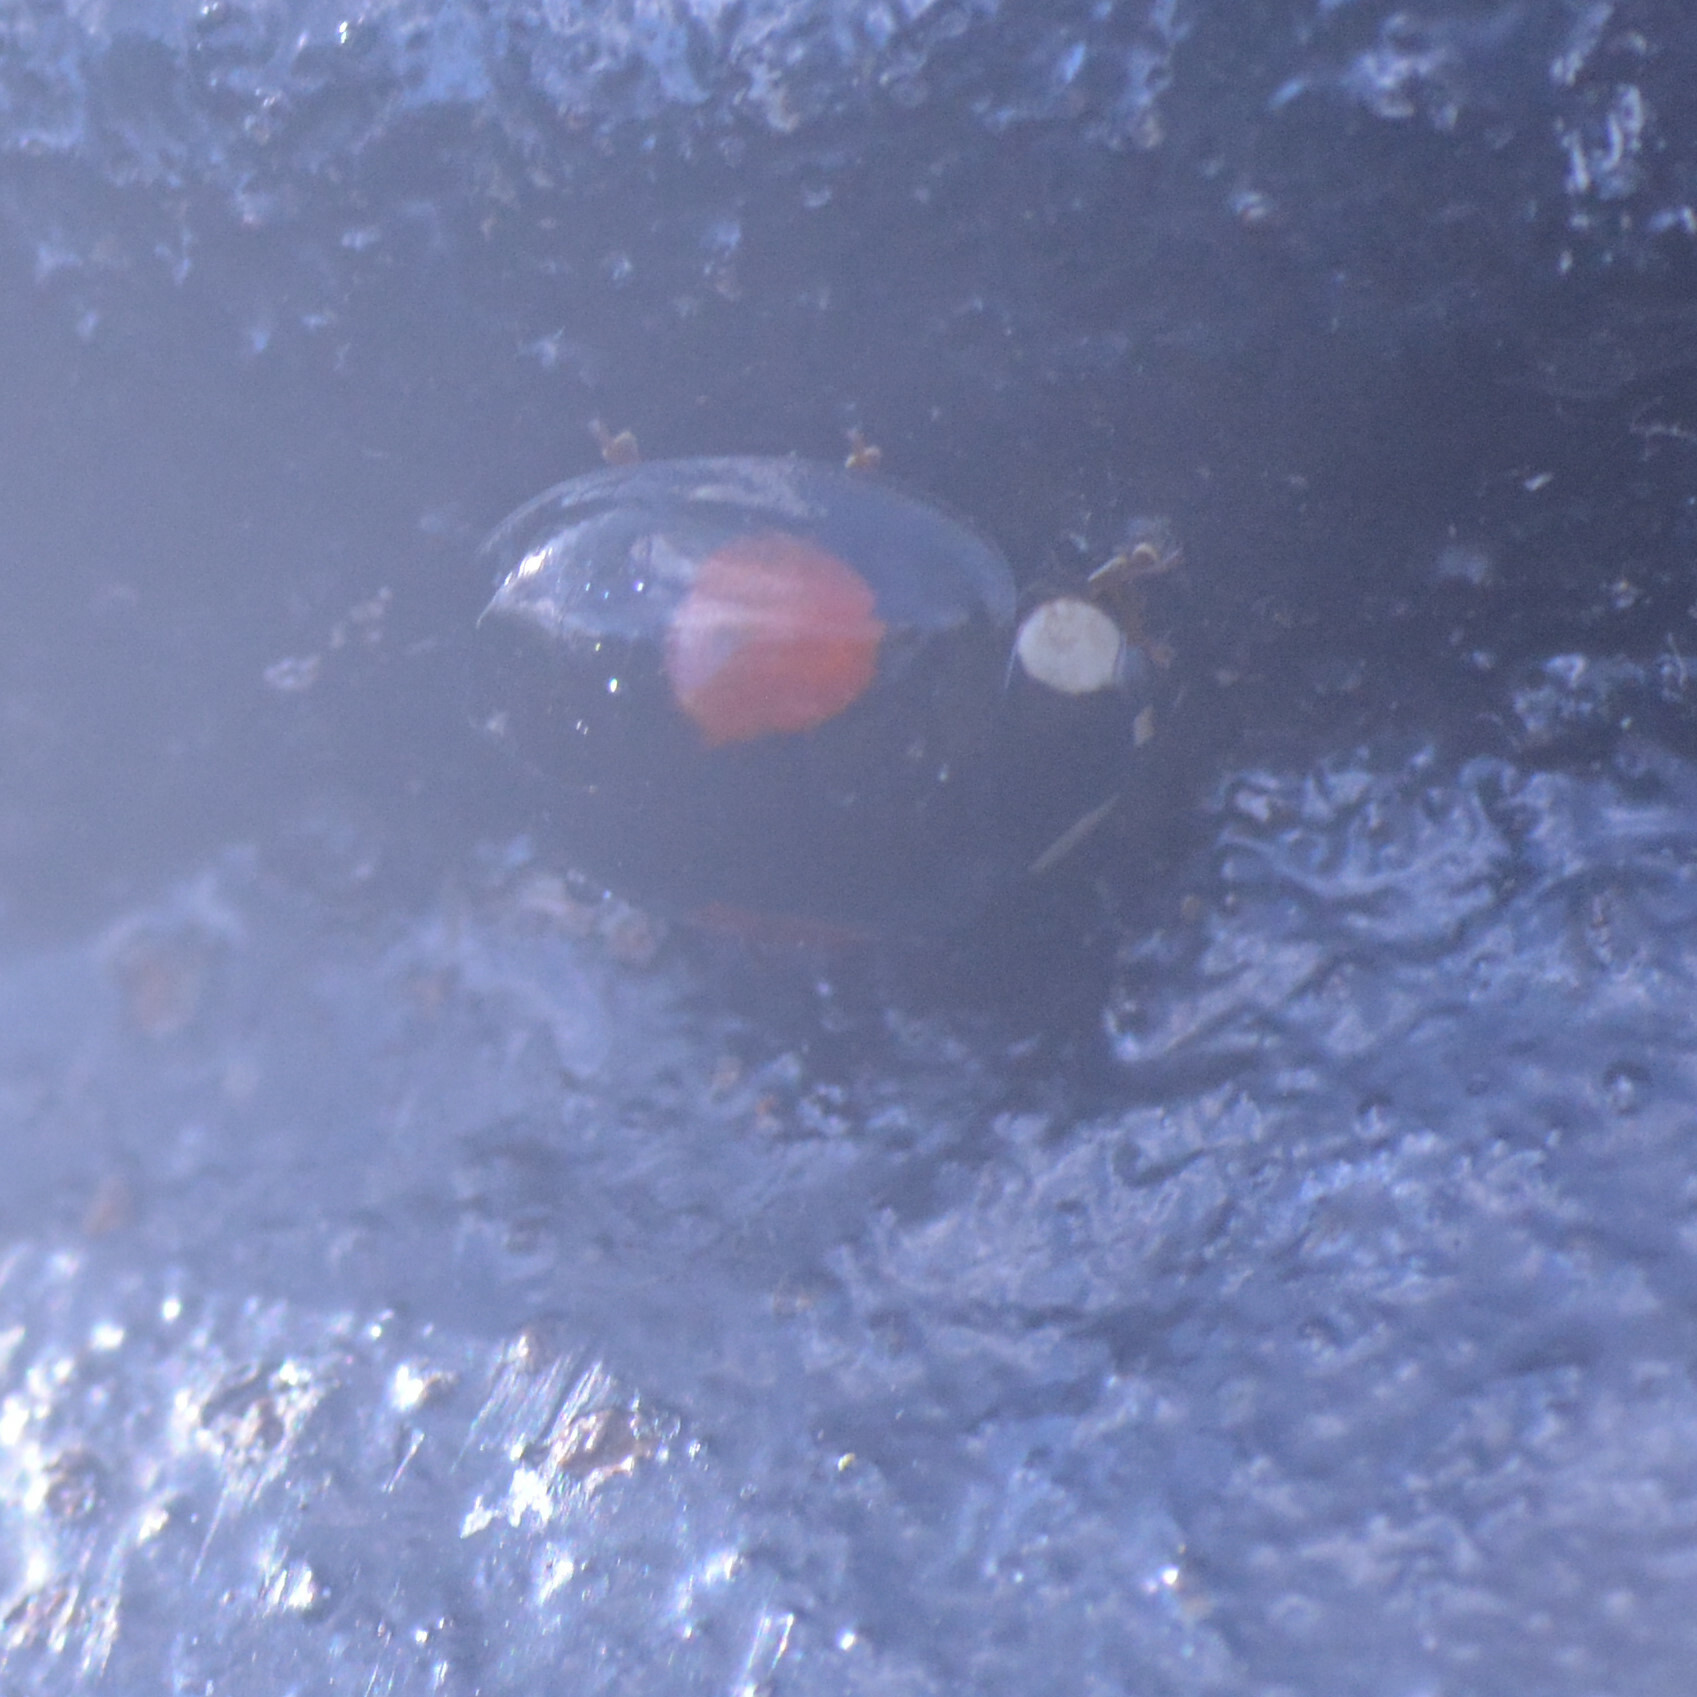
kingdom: Animalia
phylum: Arthropoda
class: Insecta
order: Coleoptera
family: Coccinellidae
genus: Harmonia
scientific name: Harmonia axyridis
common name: Harlequin ladybird
